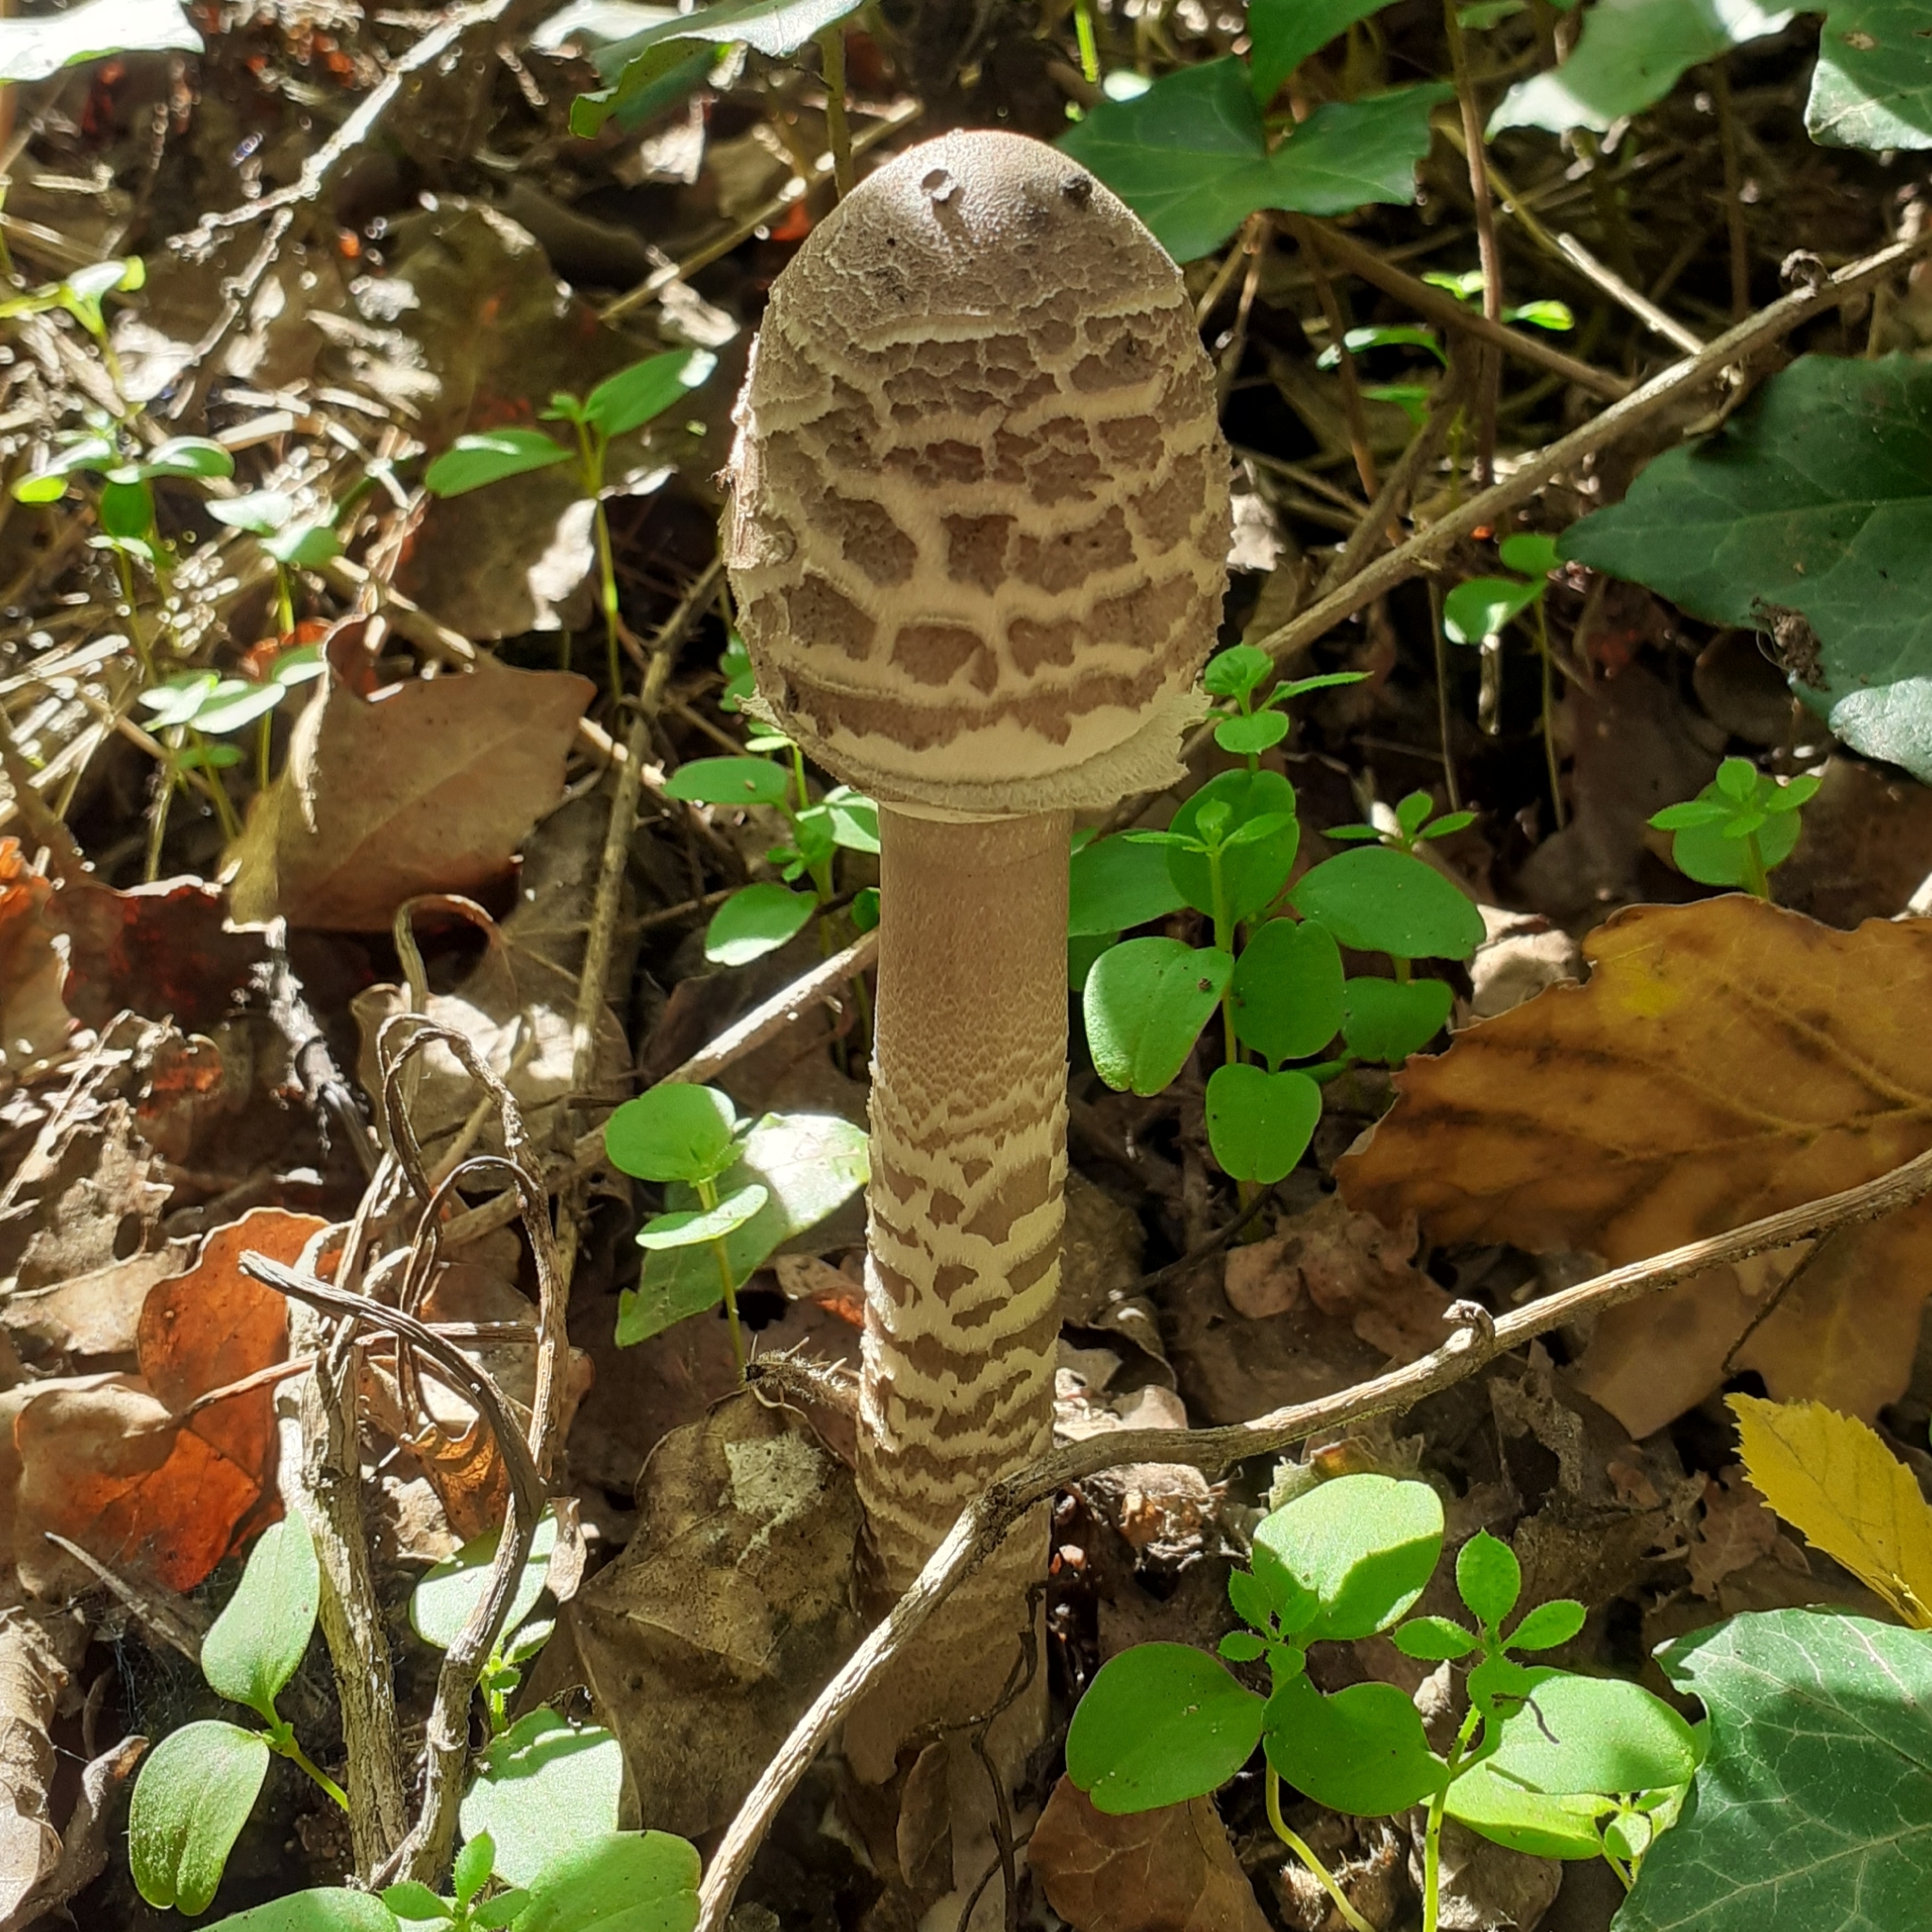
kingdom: Fungi
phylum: Basidiomycota
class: Agaricomycetes
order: Agaricales
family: Agaricaceae
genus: Macrolepiota
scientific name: Macrolepiota procera
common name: Parasol
